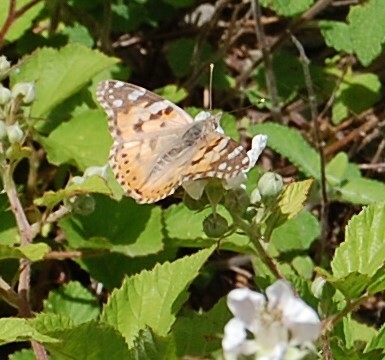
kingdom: Animalia
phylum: Arthropoda
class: Insecta
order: Lepidoptera
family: Nymphalidae
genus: Vanessa
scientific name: Vanessa cardui
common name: Painted lady
